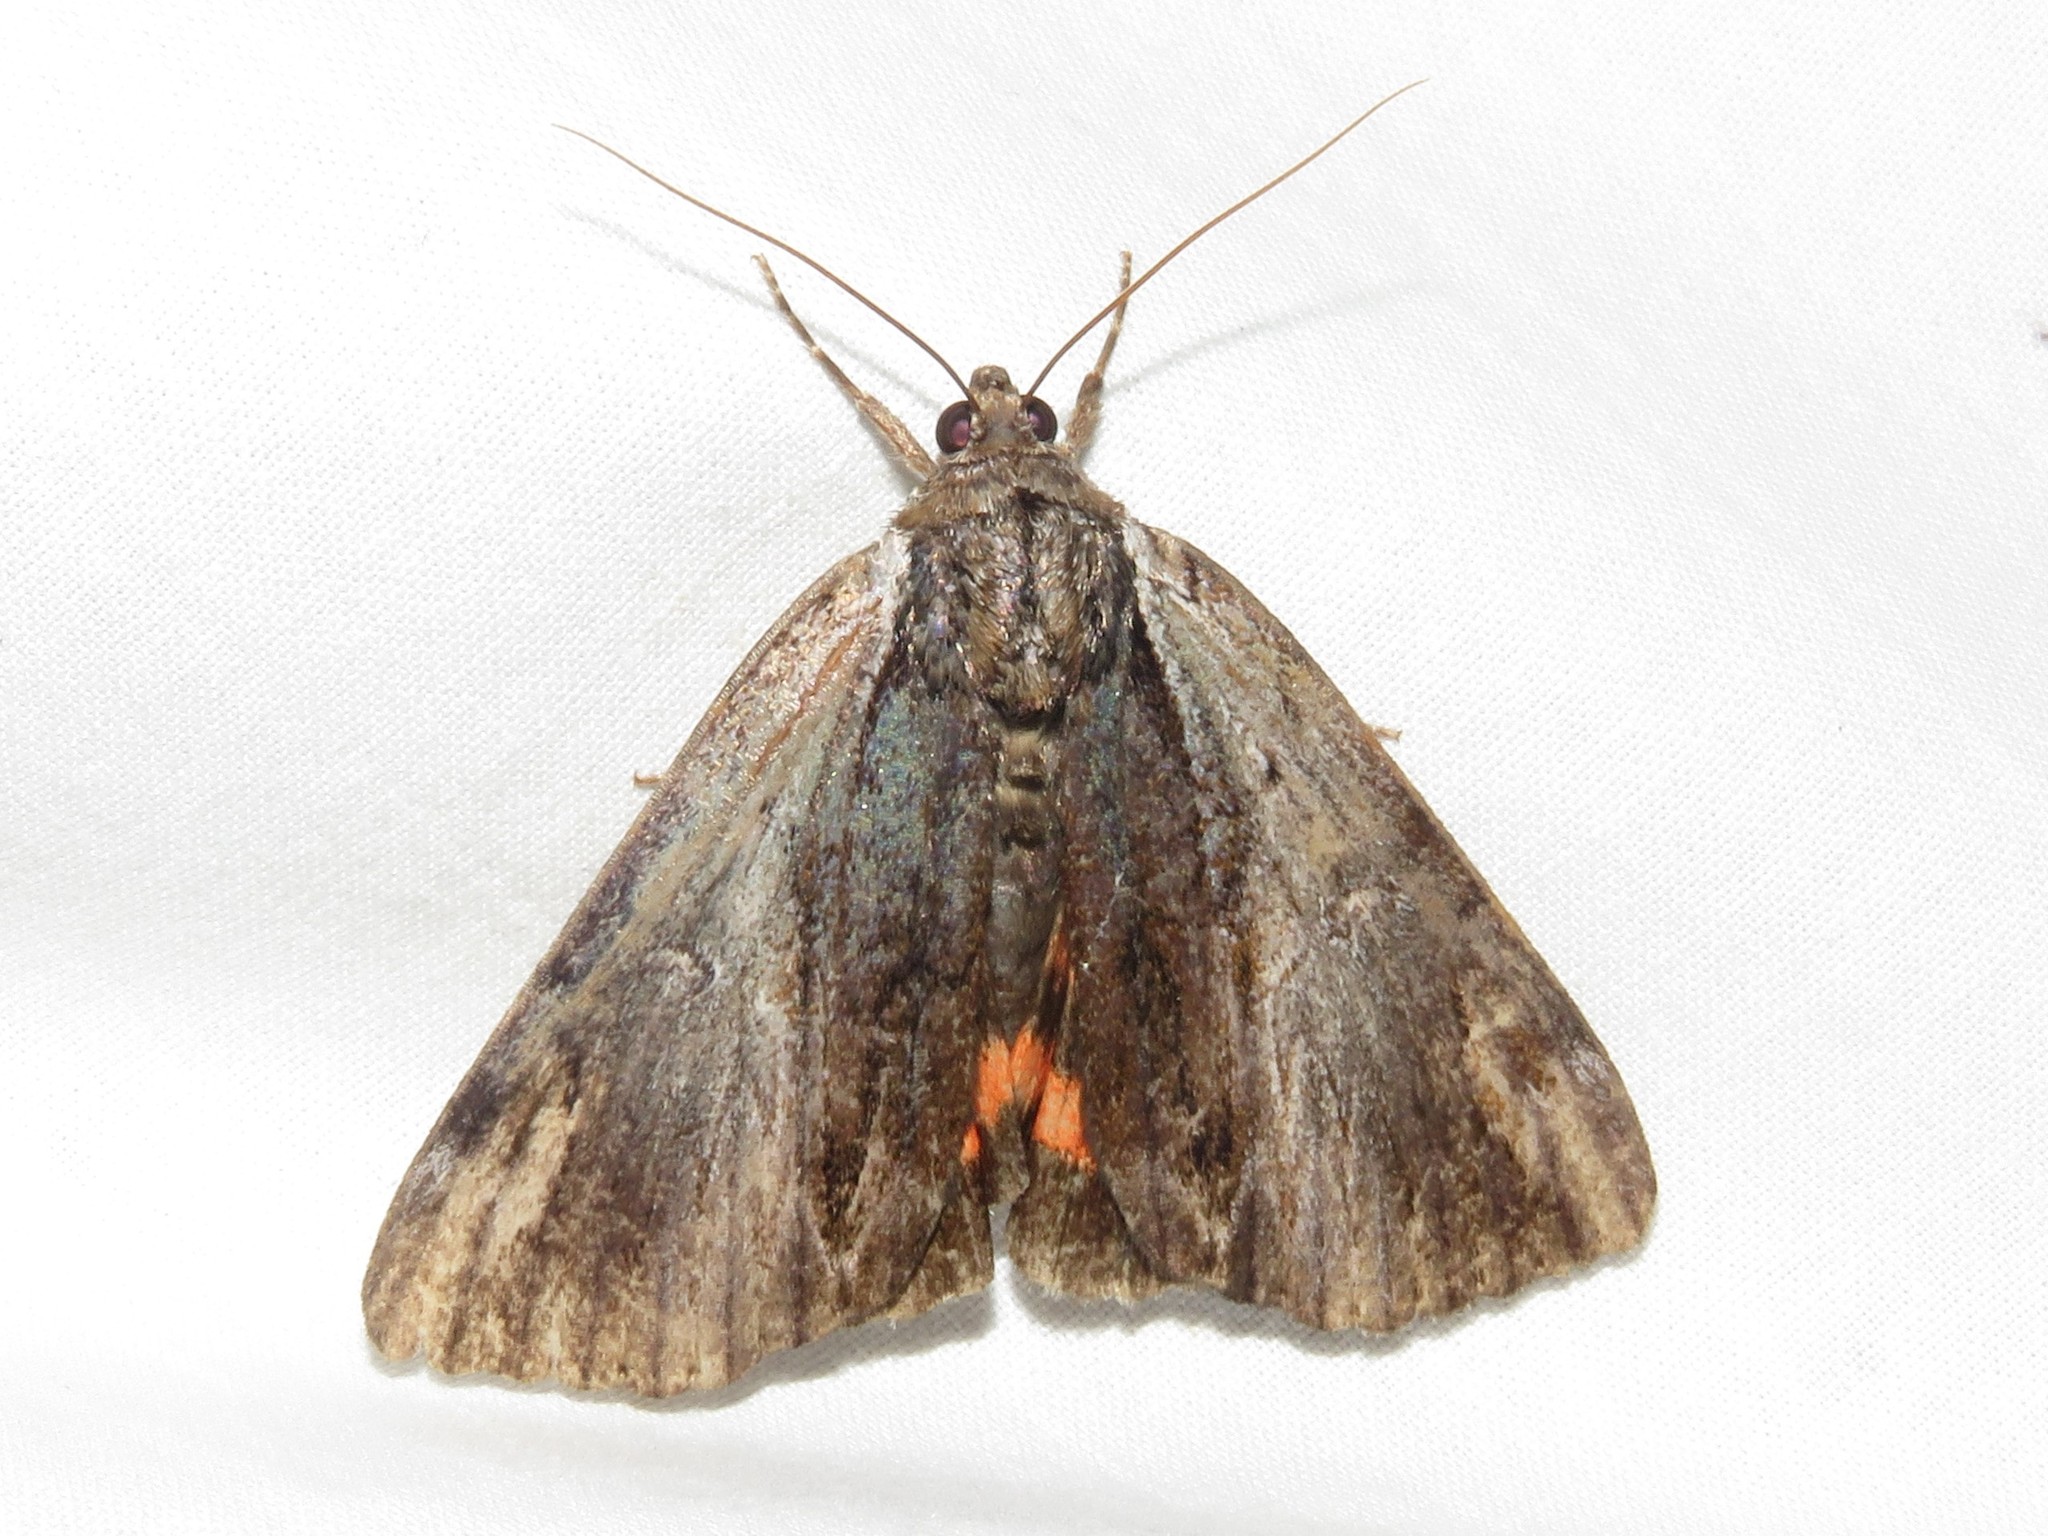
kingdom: Animalia
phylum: Arthropoda
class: Insecta
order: Lepidoptera
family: Erebidae
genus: Catocala
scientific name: Catocala ultronia
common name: Ultronia underwing
